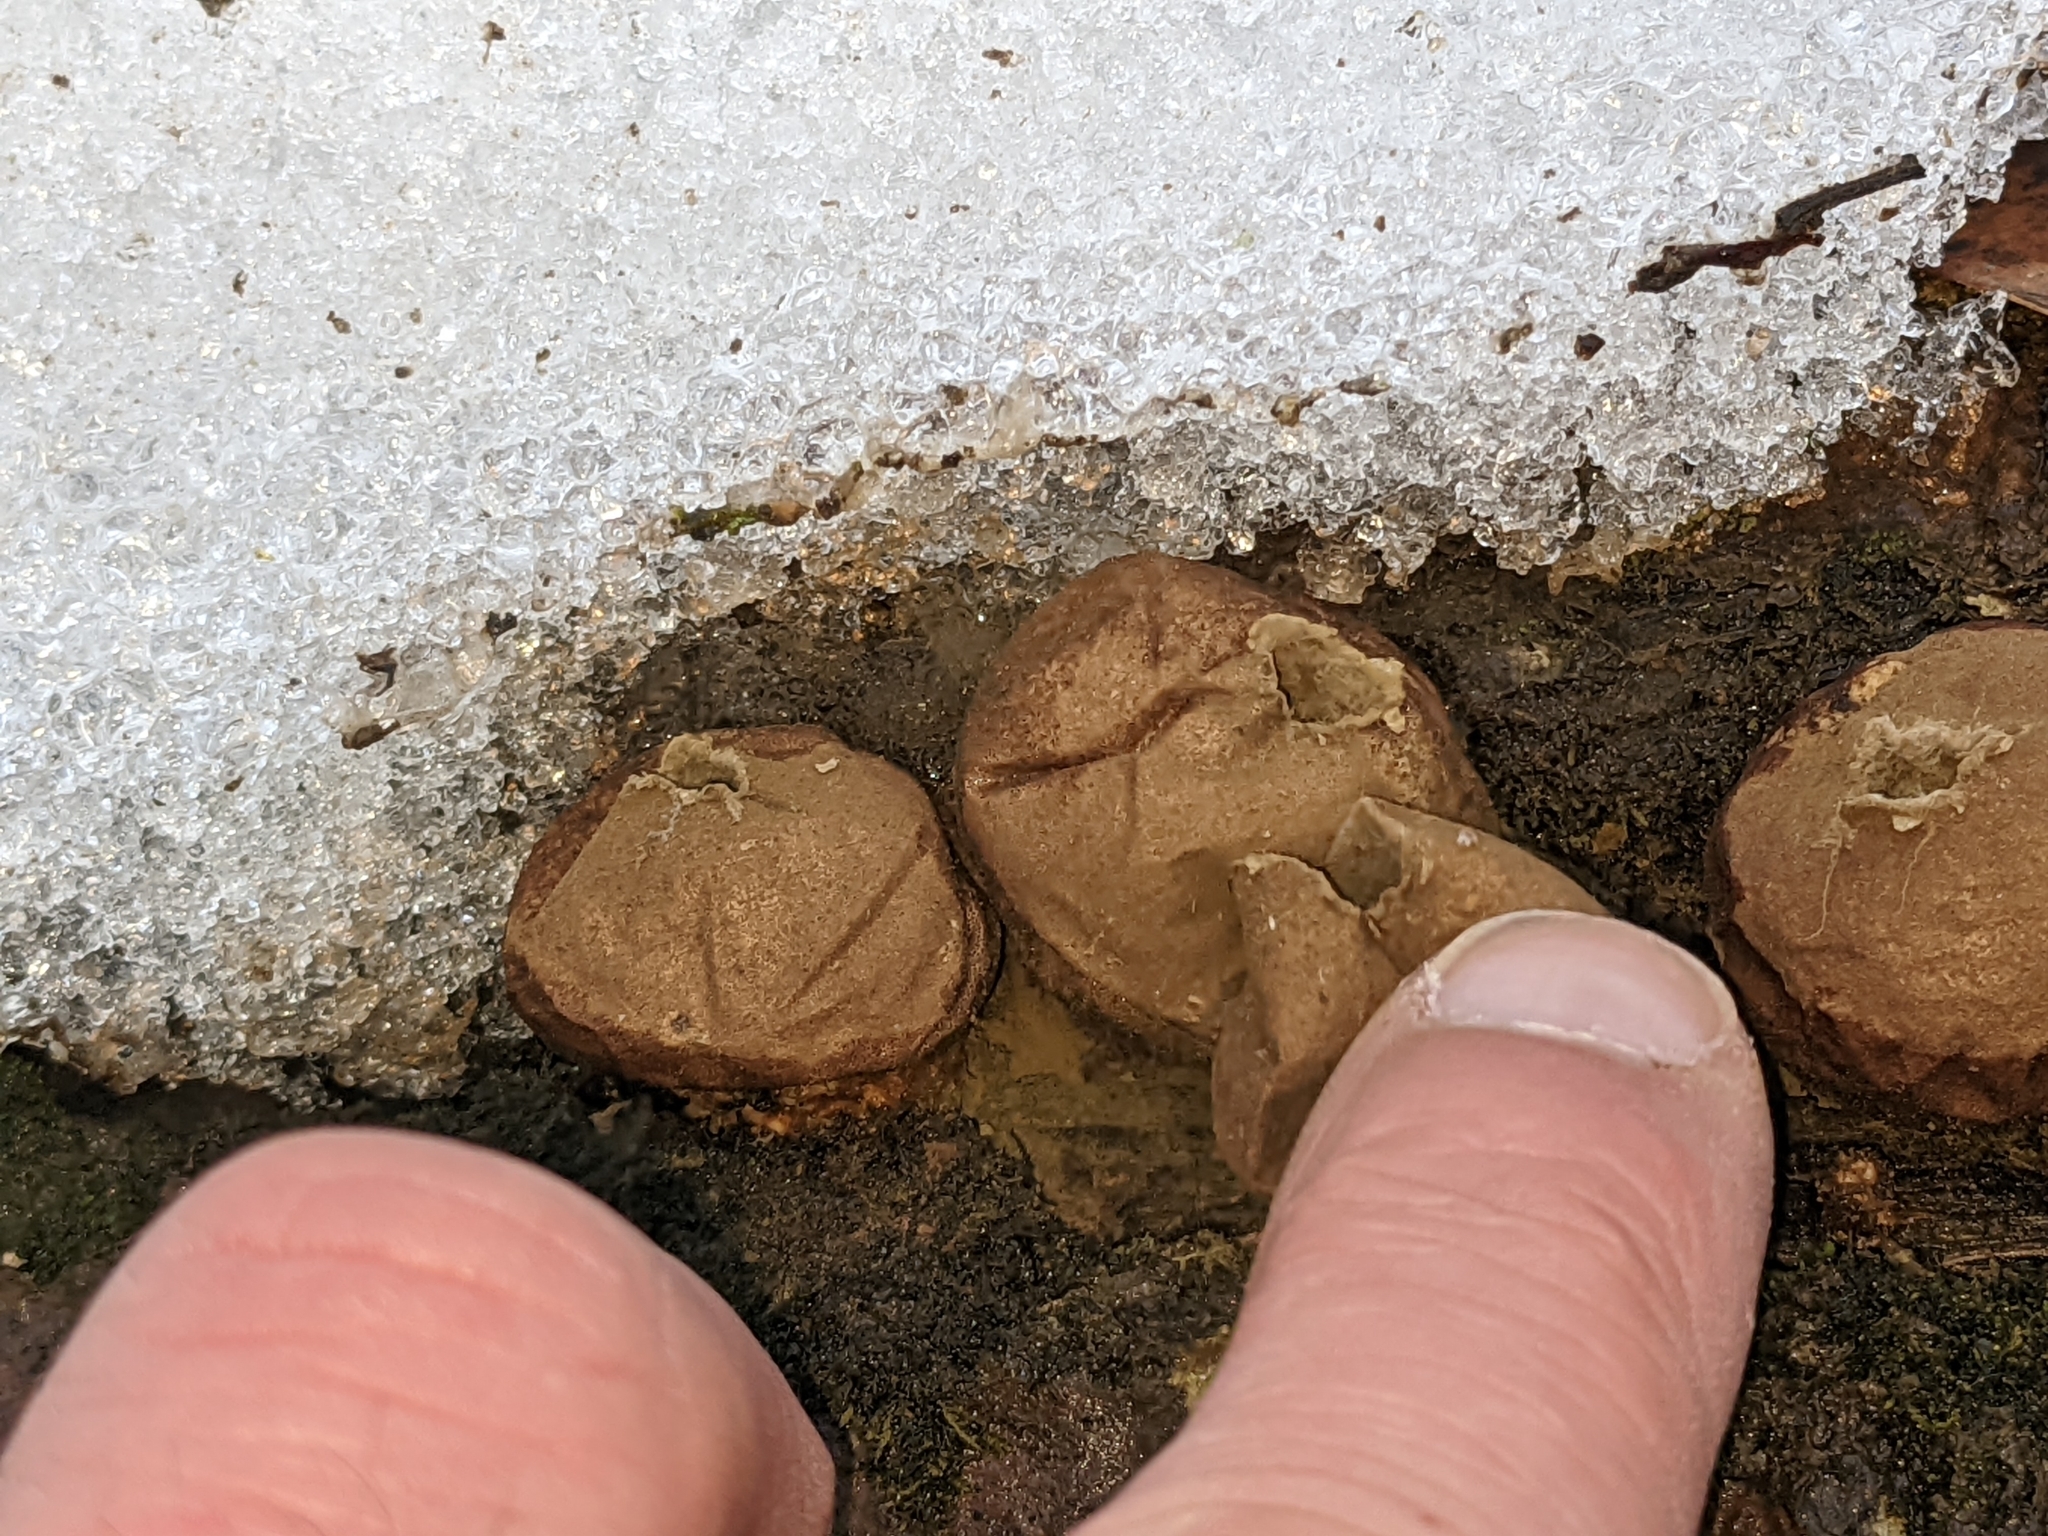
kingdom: Fungi
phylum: Basidiomycota
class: Agaricomycetes
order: Agaricales
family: Lycoperdaceae
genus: Apioperdon
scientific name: Apioperdon pyriforme
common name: Pear-shaped puffball
